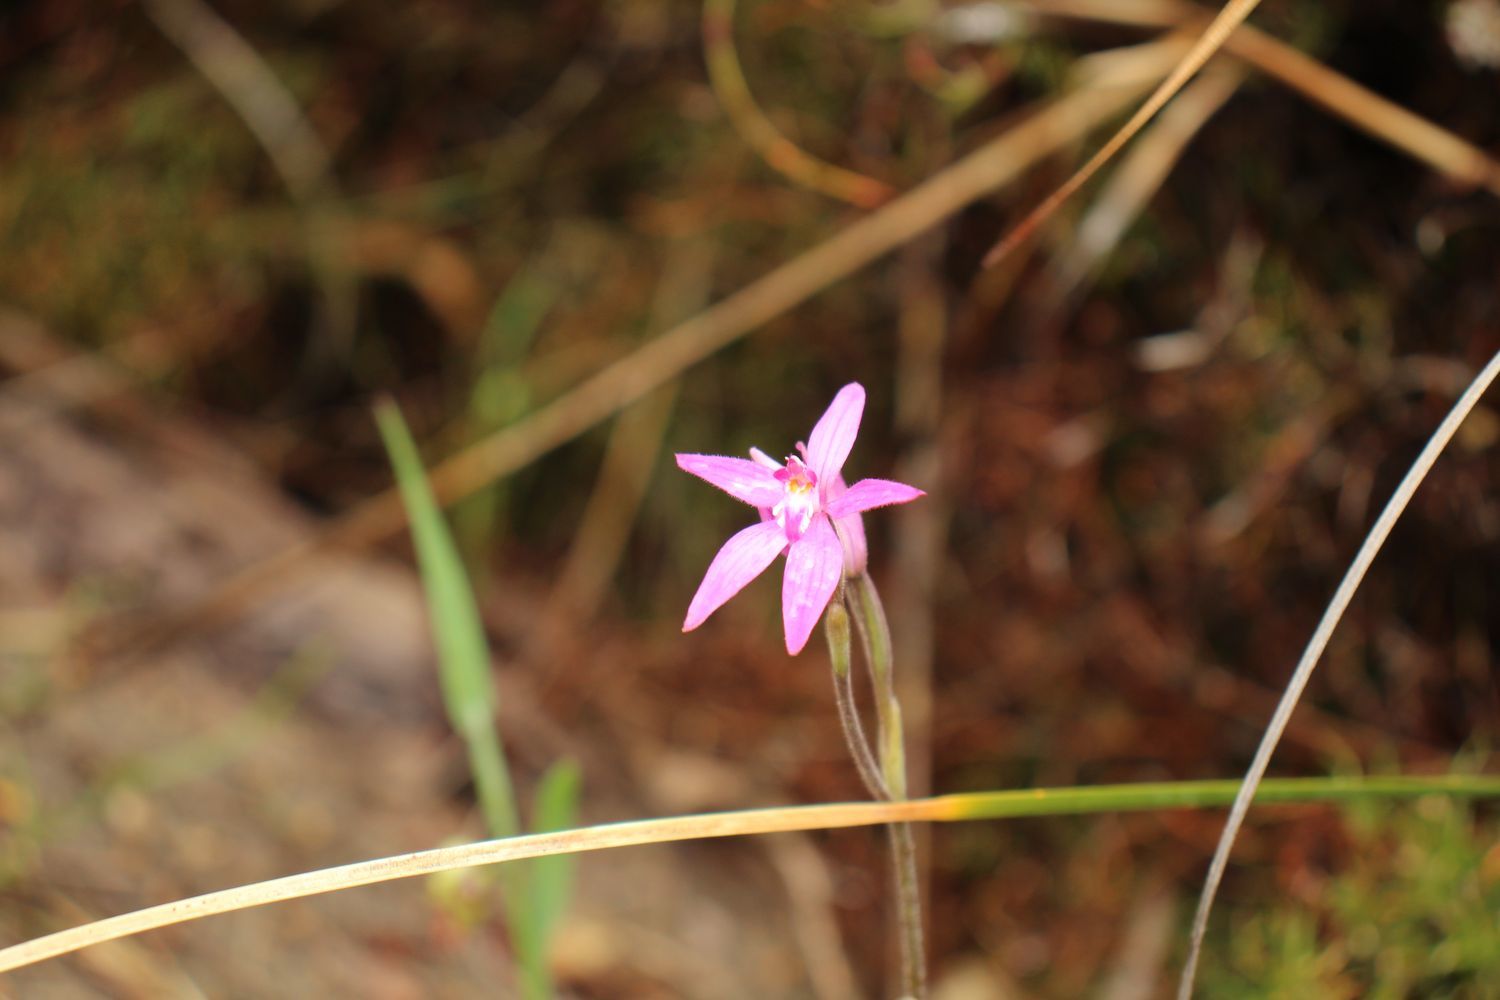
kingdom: Plantae
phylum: Tracheophyta
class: Liliopsida
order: Asparagales
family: Orchidaceae
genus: Caladenia
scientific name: Caladenia latifolia
